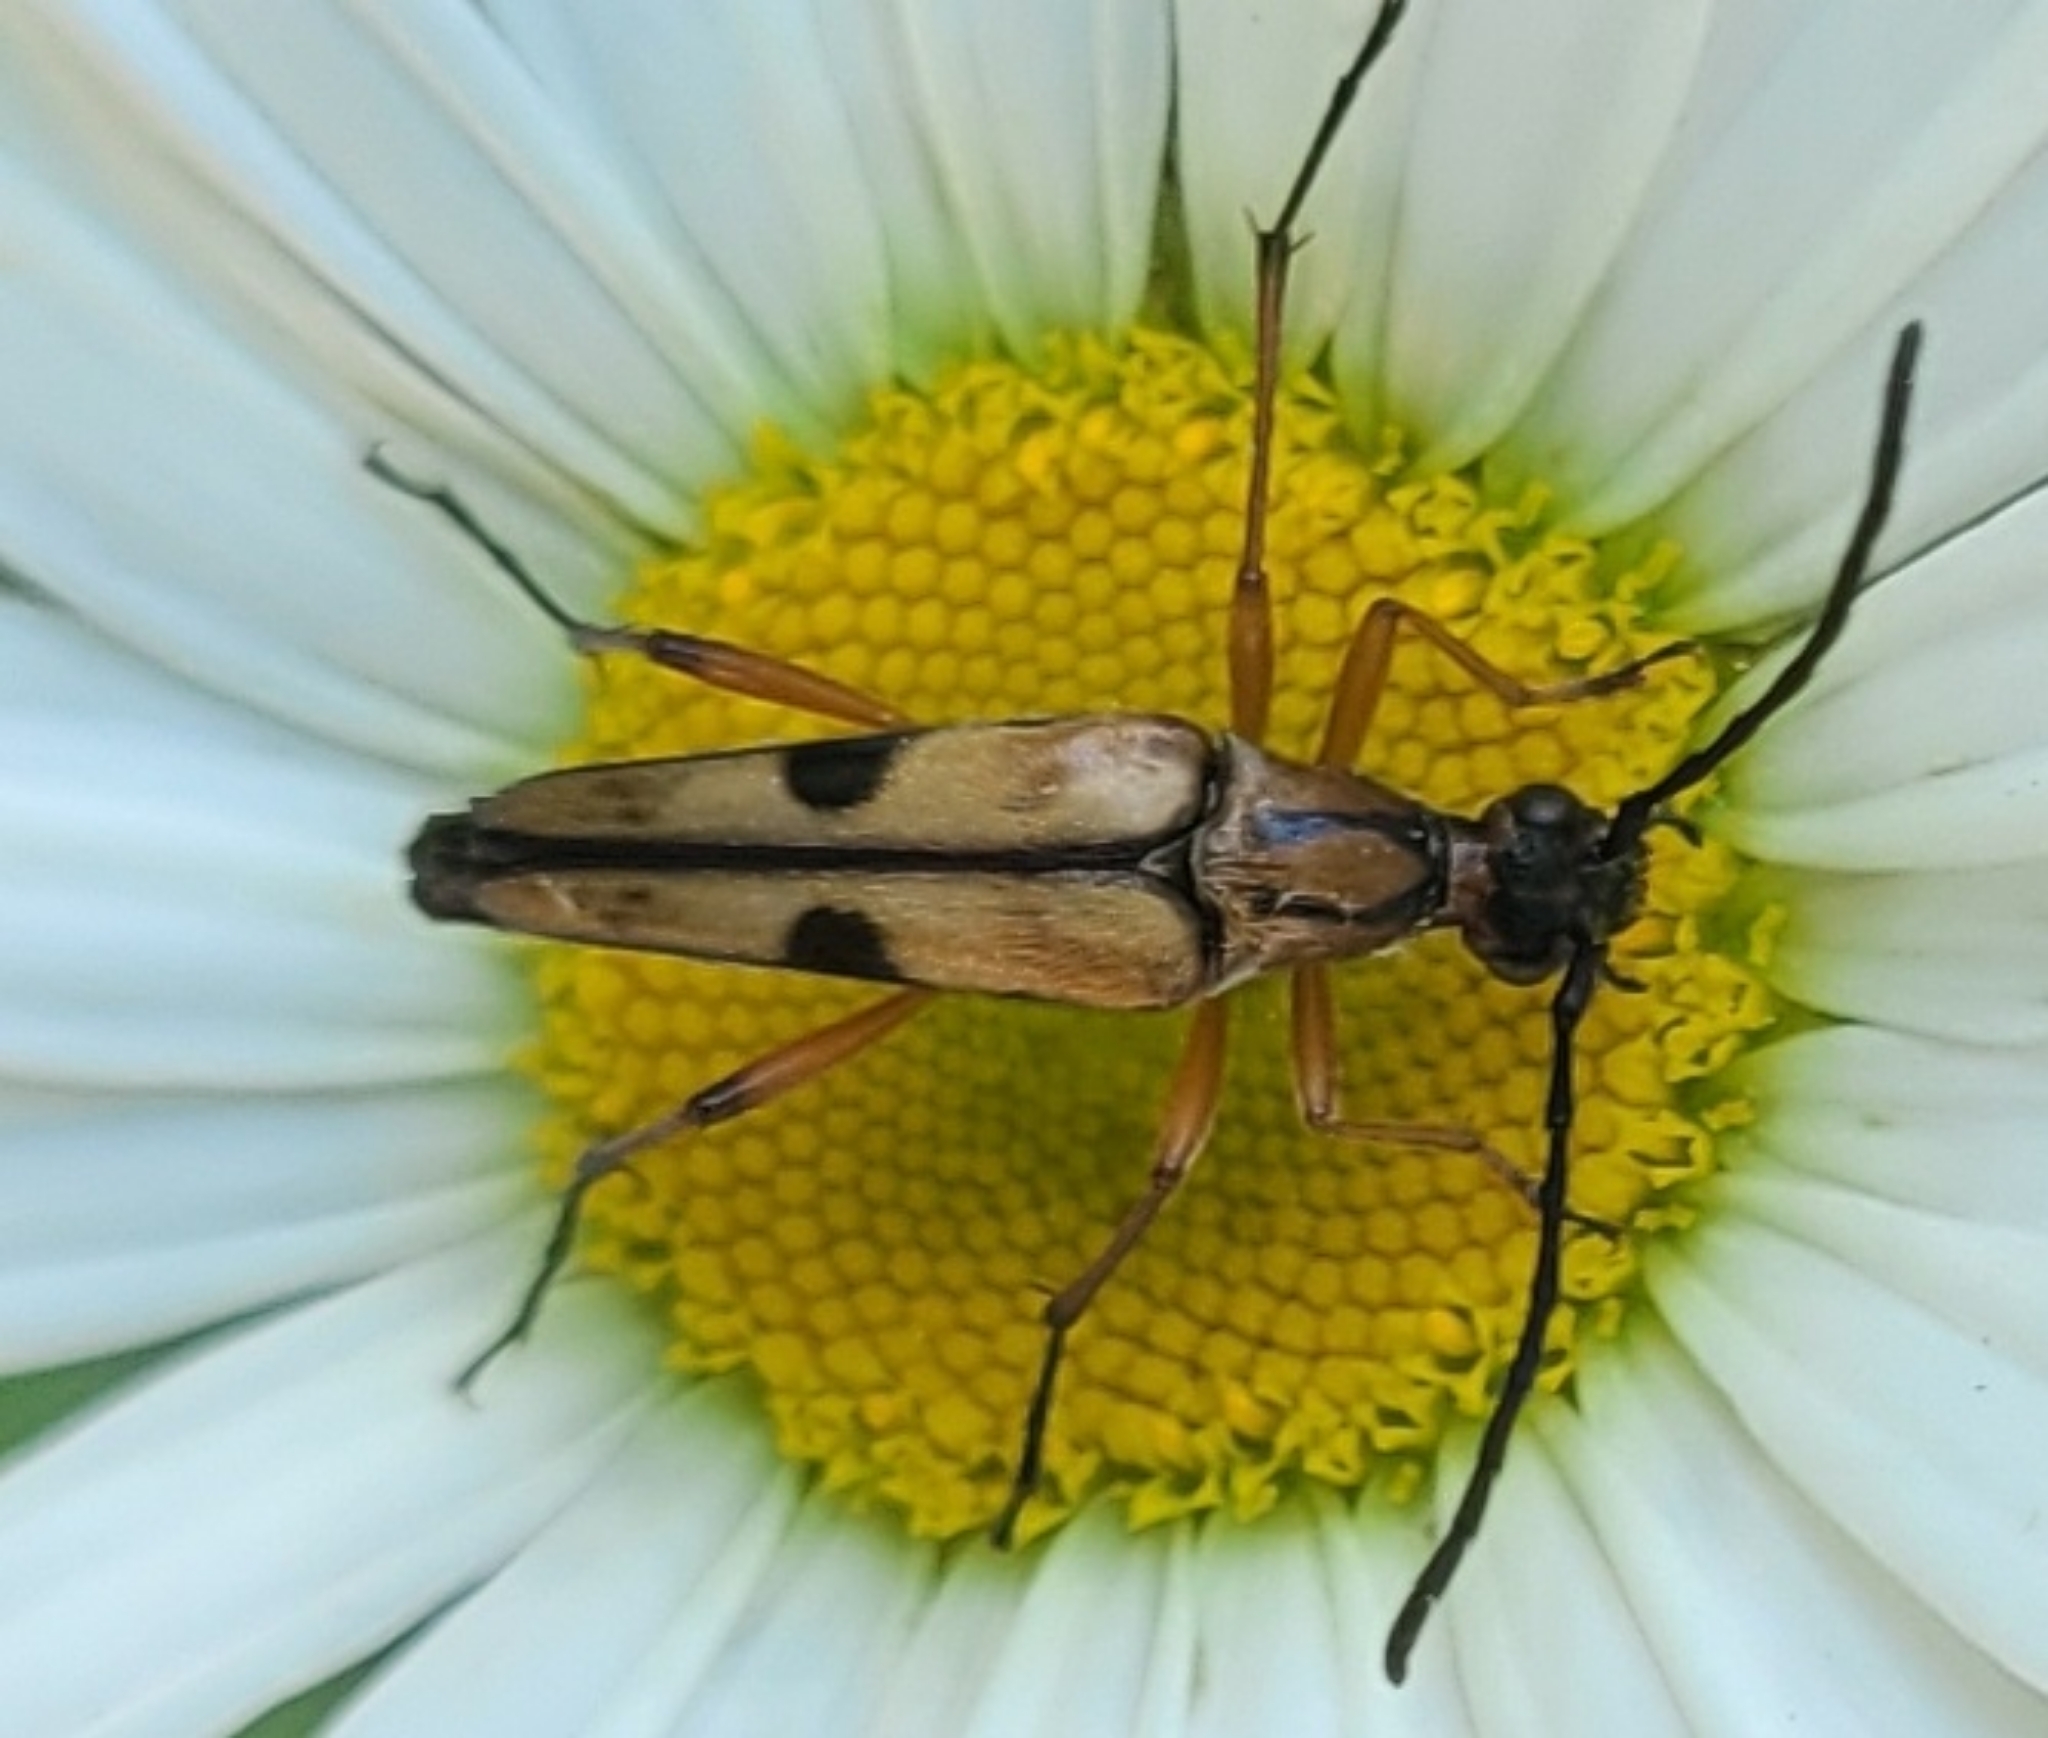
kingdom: Animalia
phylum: Arthropoda
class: Insecta
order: Coleoptera
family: Cerambycidae
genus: Strangalia
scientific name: Strangalia famelica
